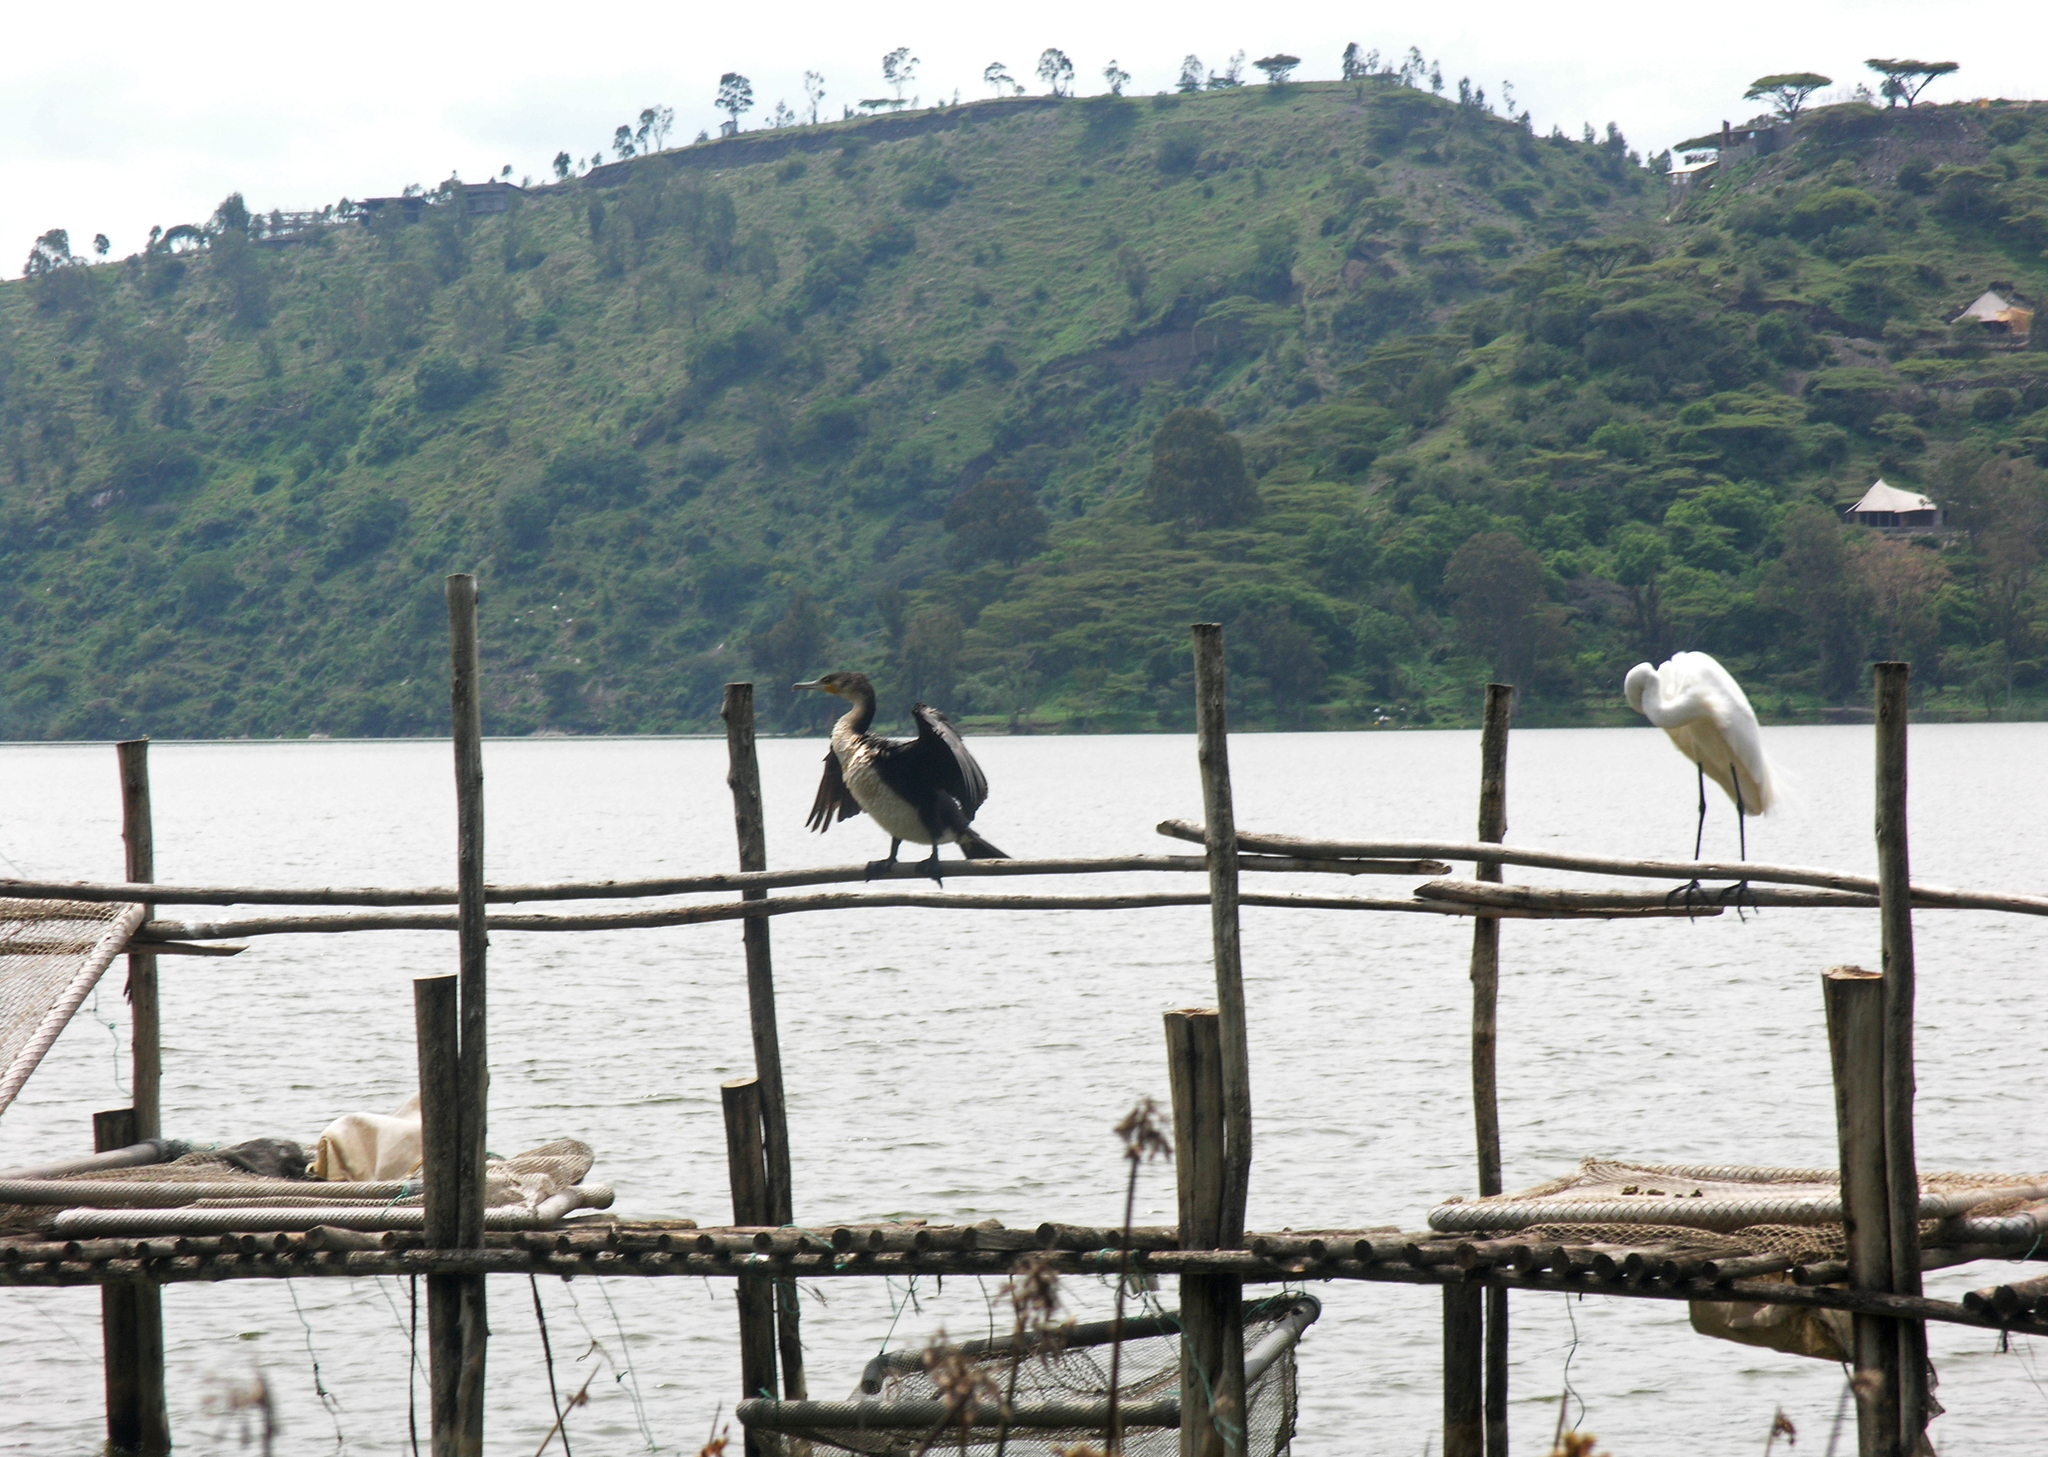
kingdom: Animalia
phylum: Chordata
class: Aves
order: Pelecaniformes
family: Ardeidae
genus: Ardea
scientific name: Ardea alba
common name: Great egret
